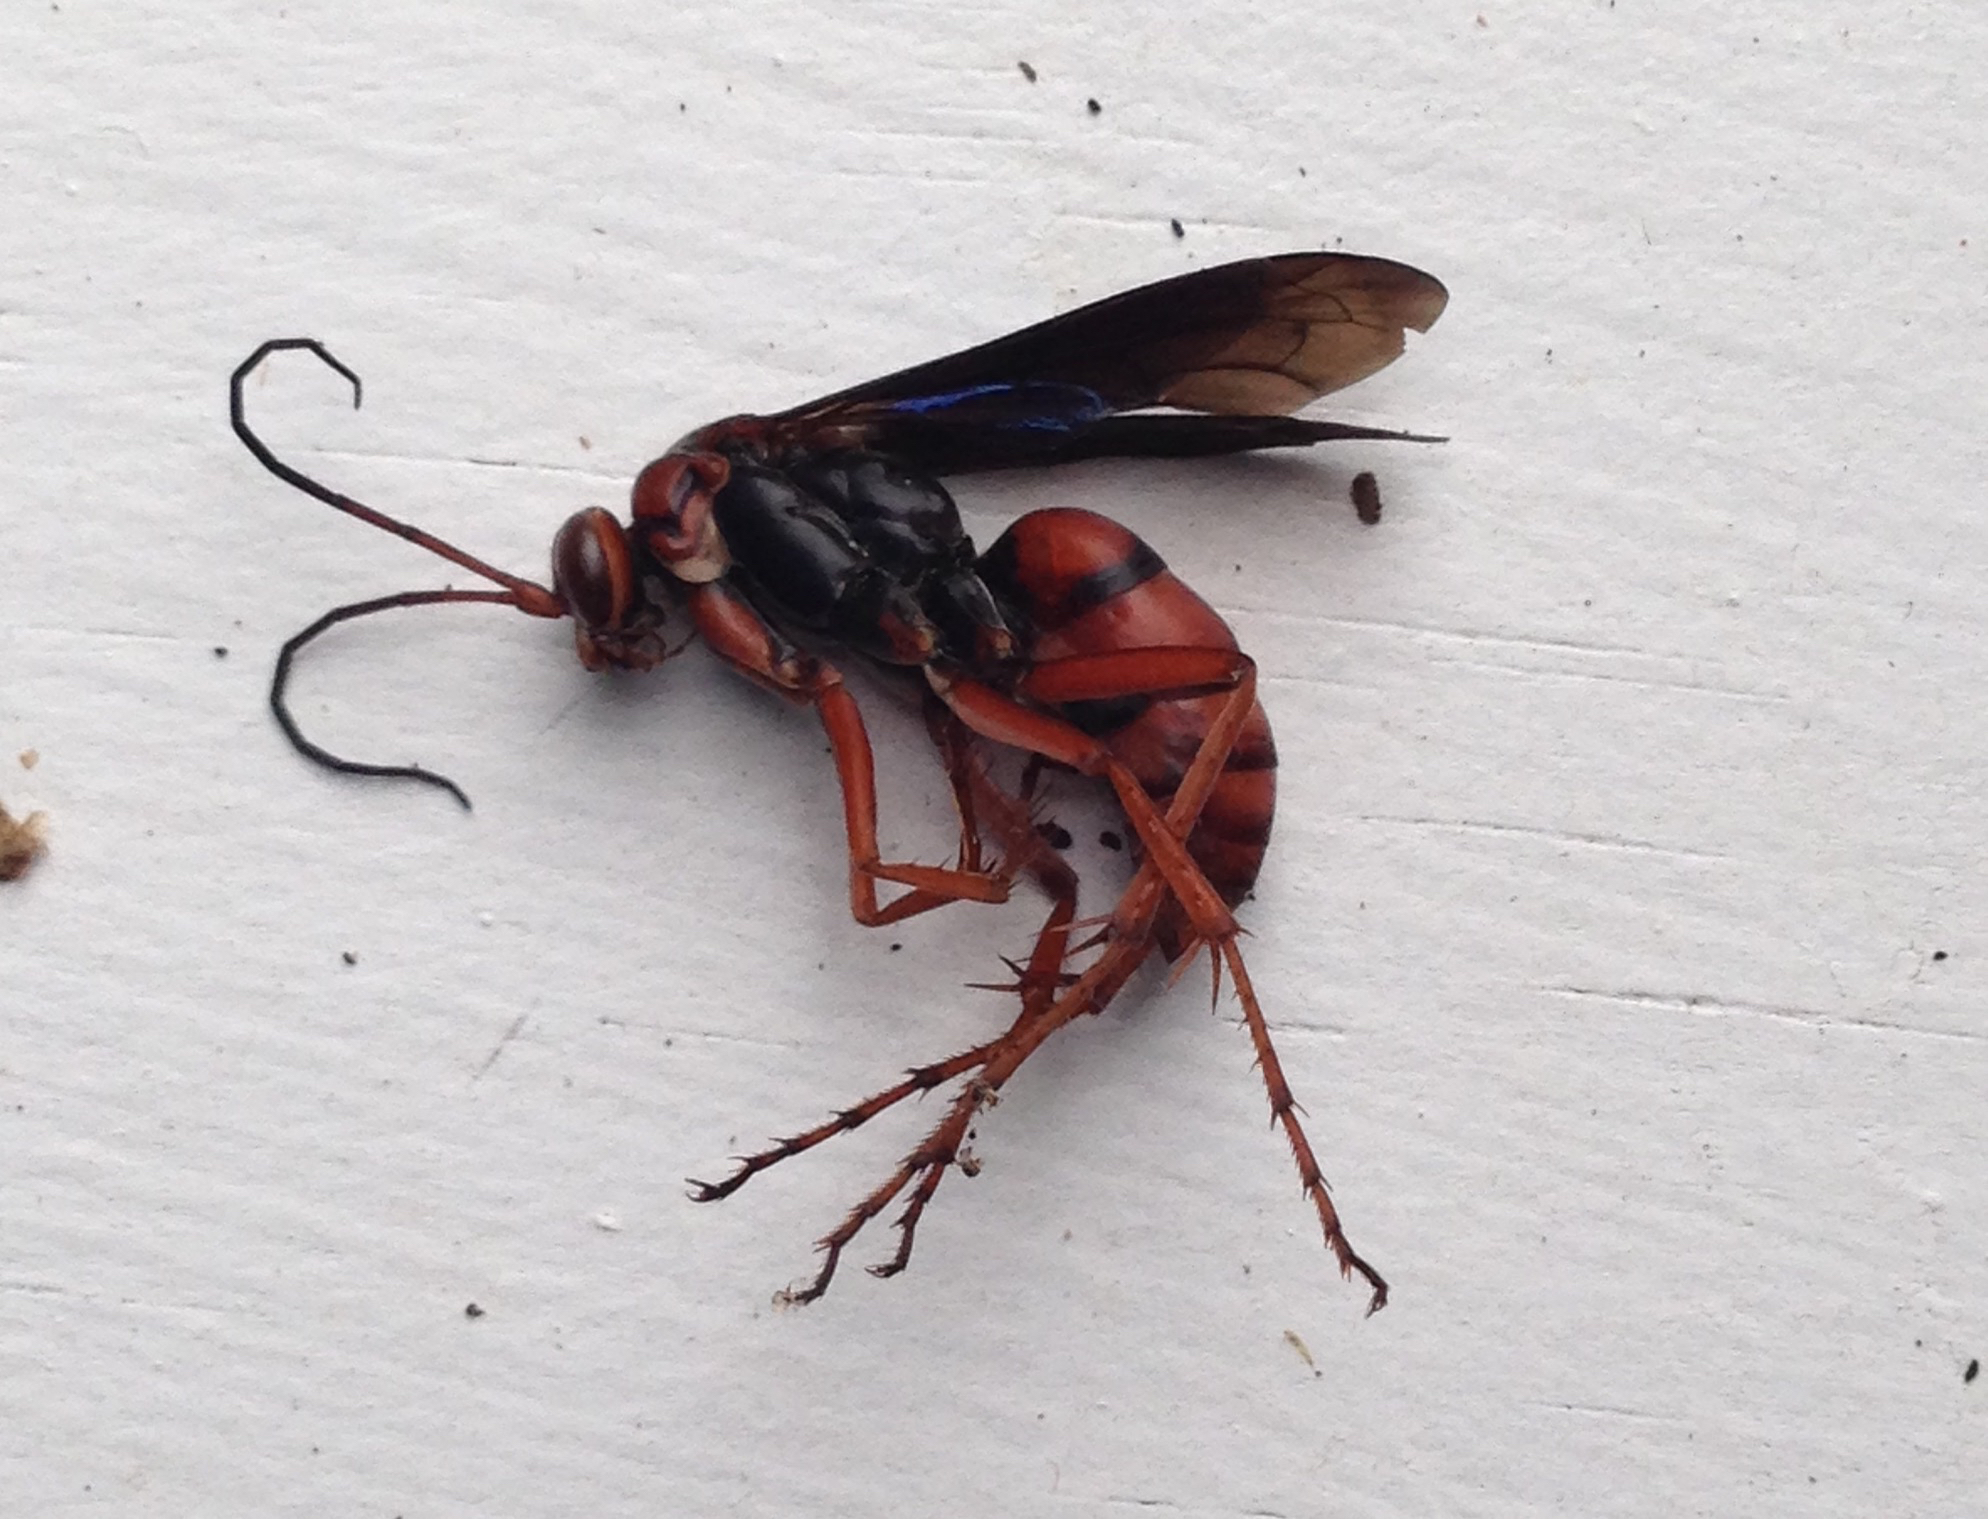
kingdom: Animalia
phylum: Arthropoda
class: Insecta
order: Hymenoptera
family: Pompilidae
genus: Tachypompilus
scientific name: Tachypompilus ferrugineus
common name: Rusty spider wasp
